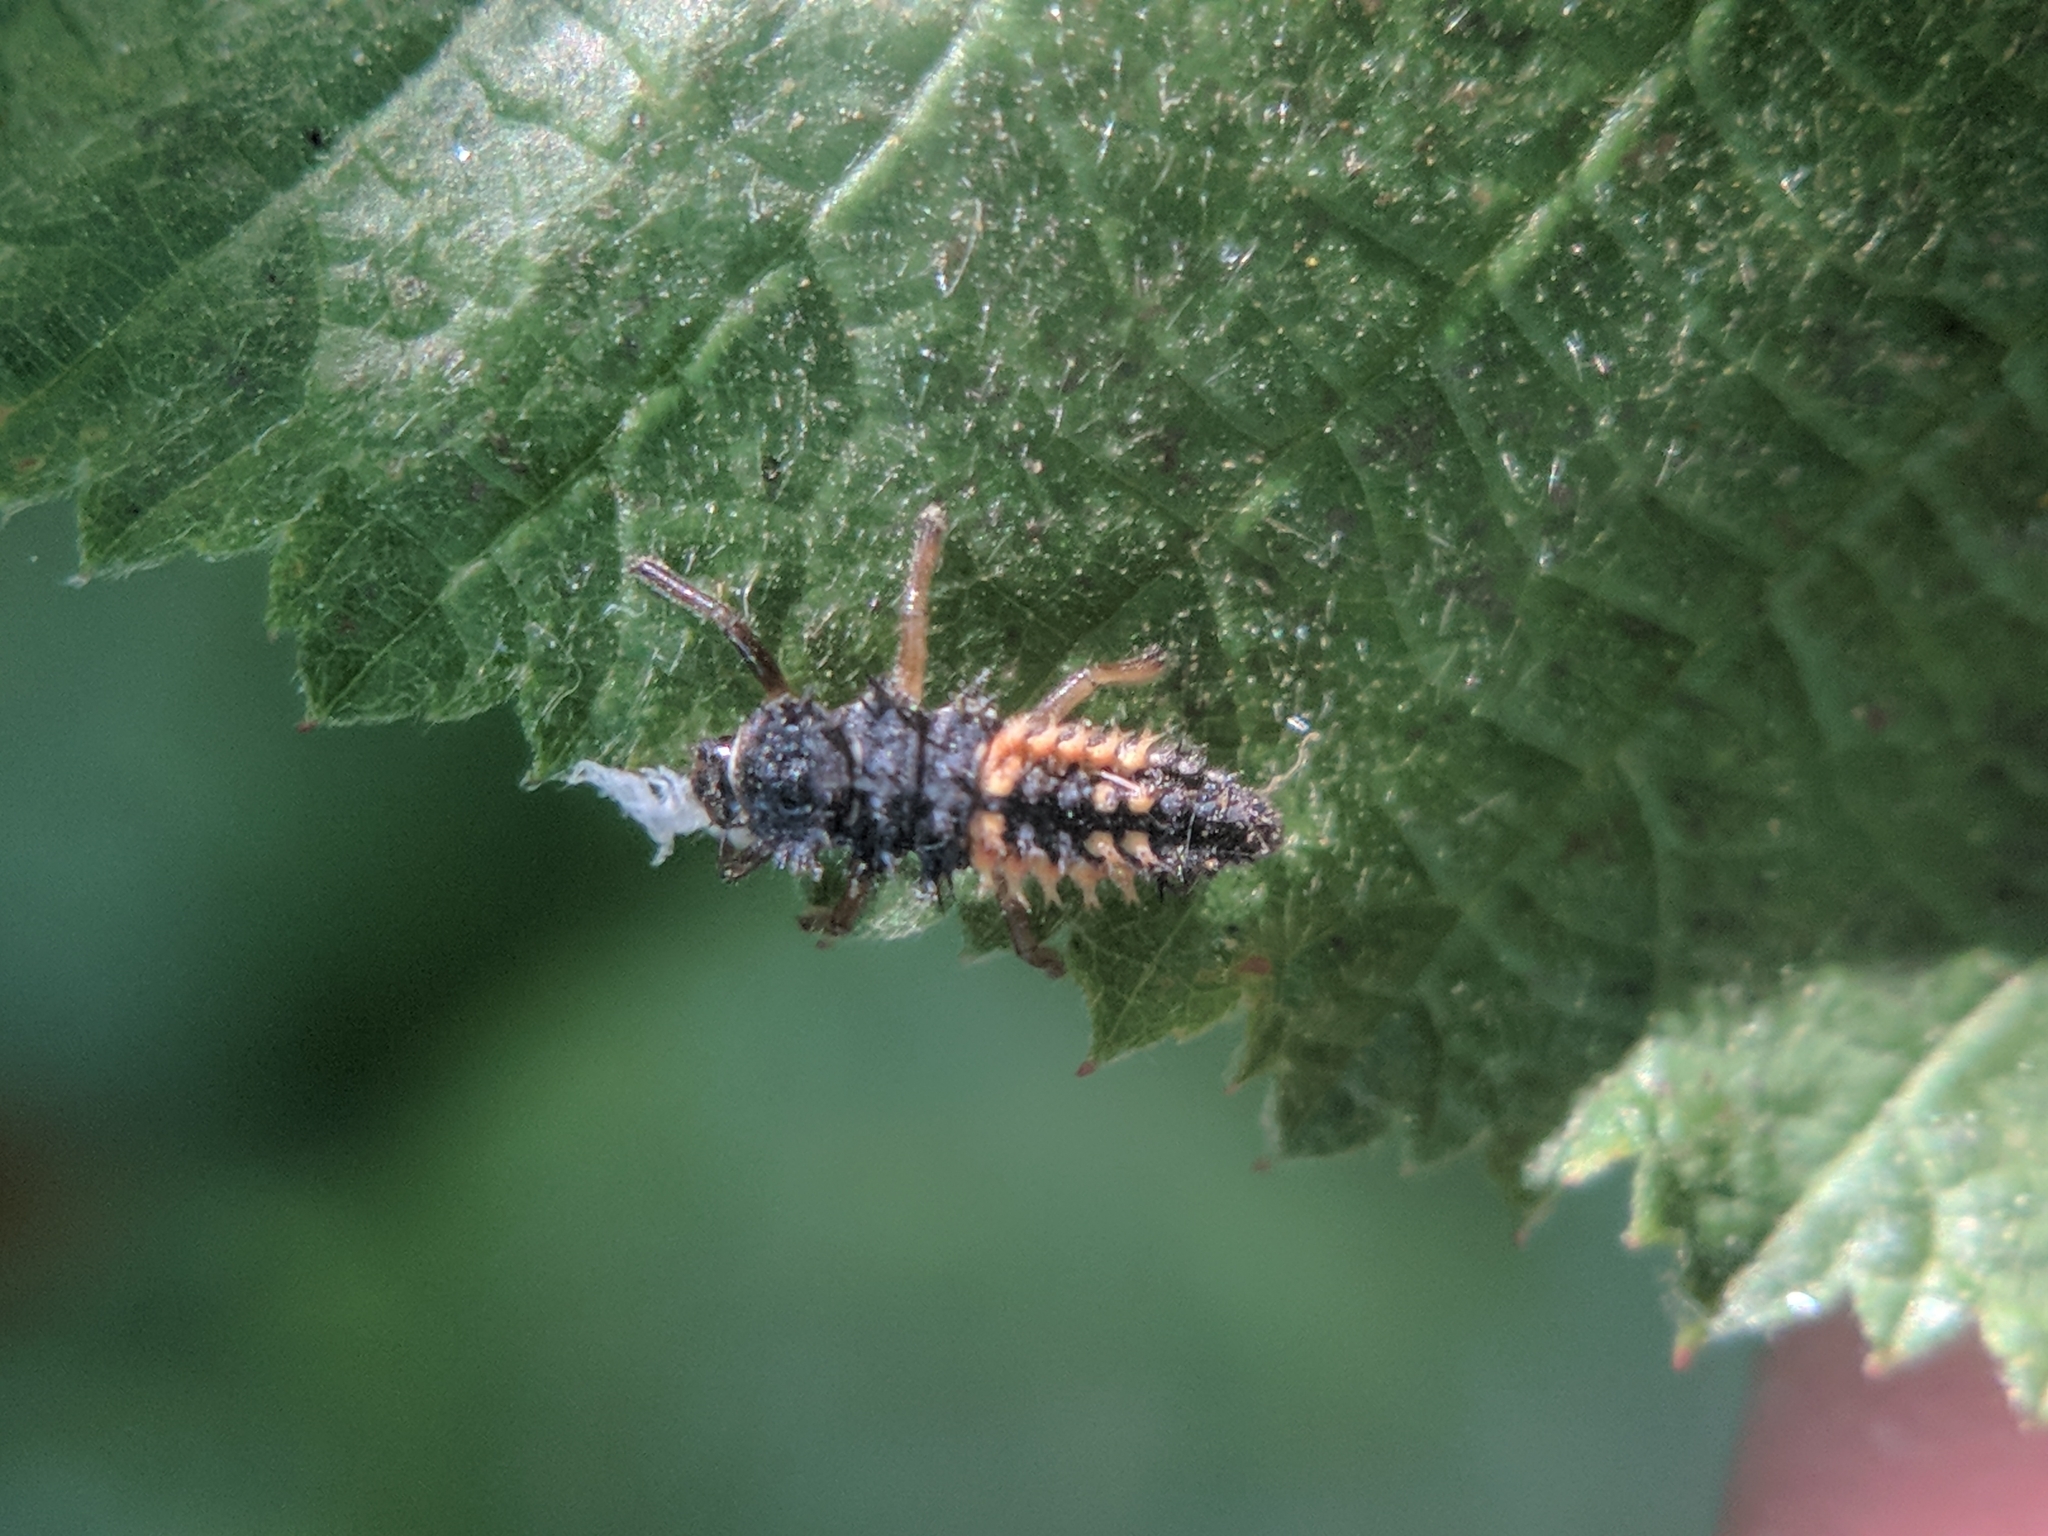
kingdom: Animalia
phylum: Arthropoda
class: Insecta
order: Coleoptera
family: Coccinellidae
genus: Harmonia
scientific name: Harmonia axyridis
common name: Harlequin ladybird
